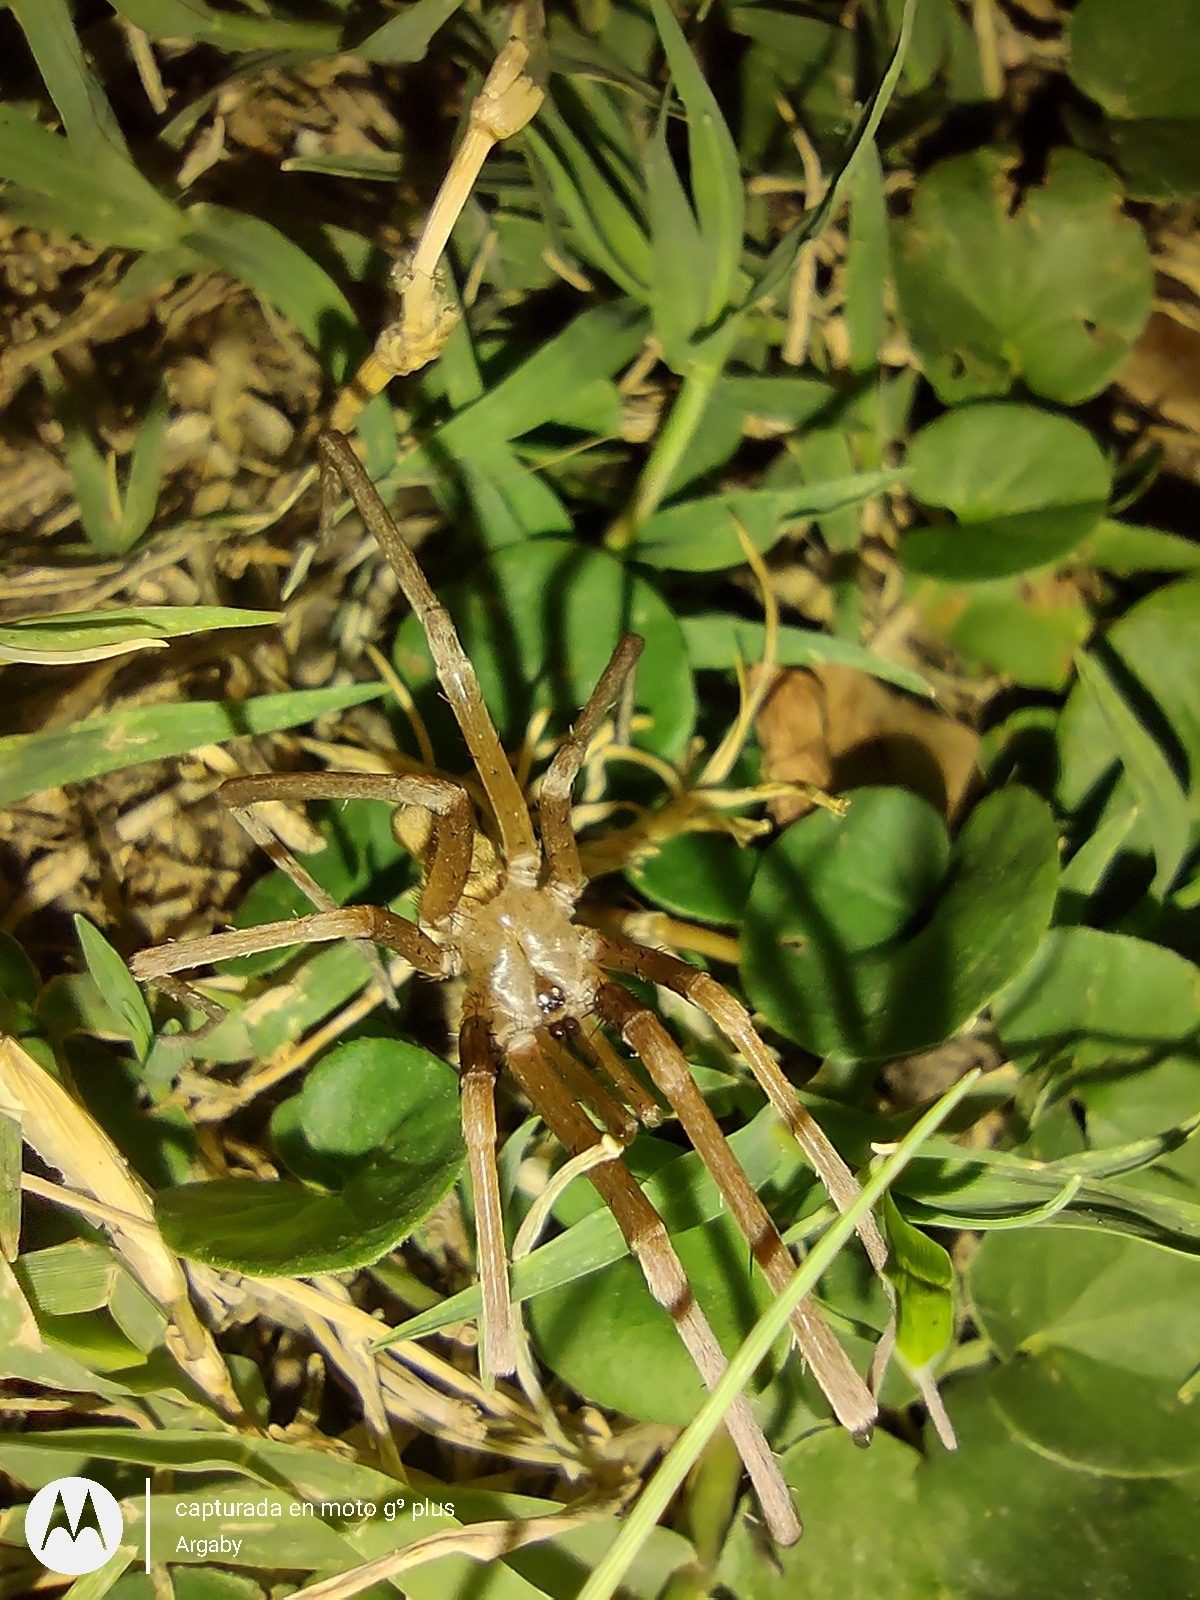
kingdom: Animalia
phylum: Arthropoda
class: Arachnida
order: Araneae
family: Filistatidae
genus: Kukulcania
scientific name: Kukulcania hibernalis
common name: Crevice weaver
